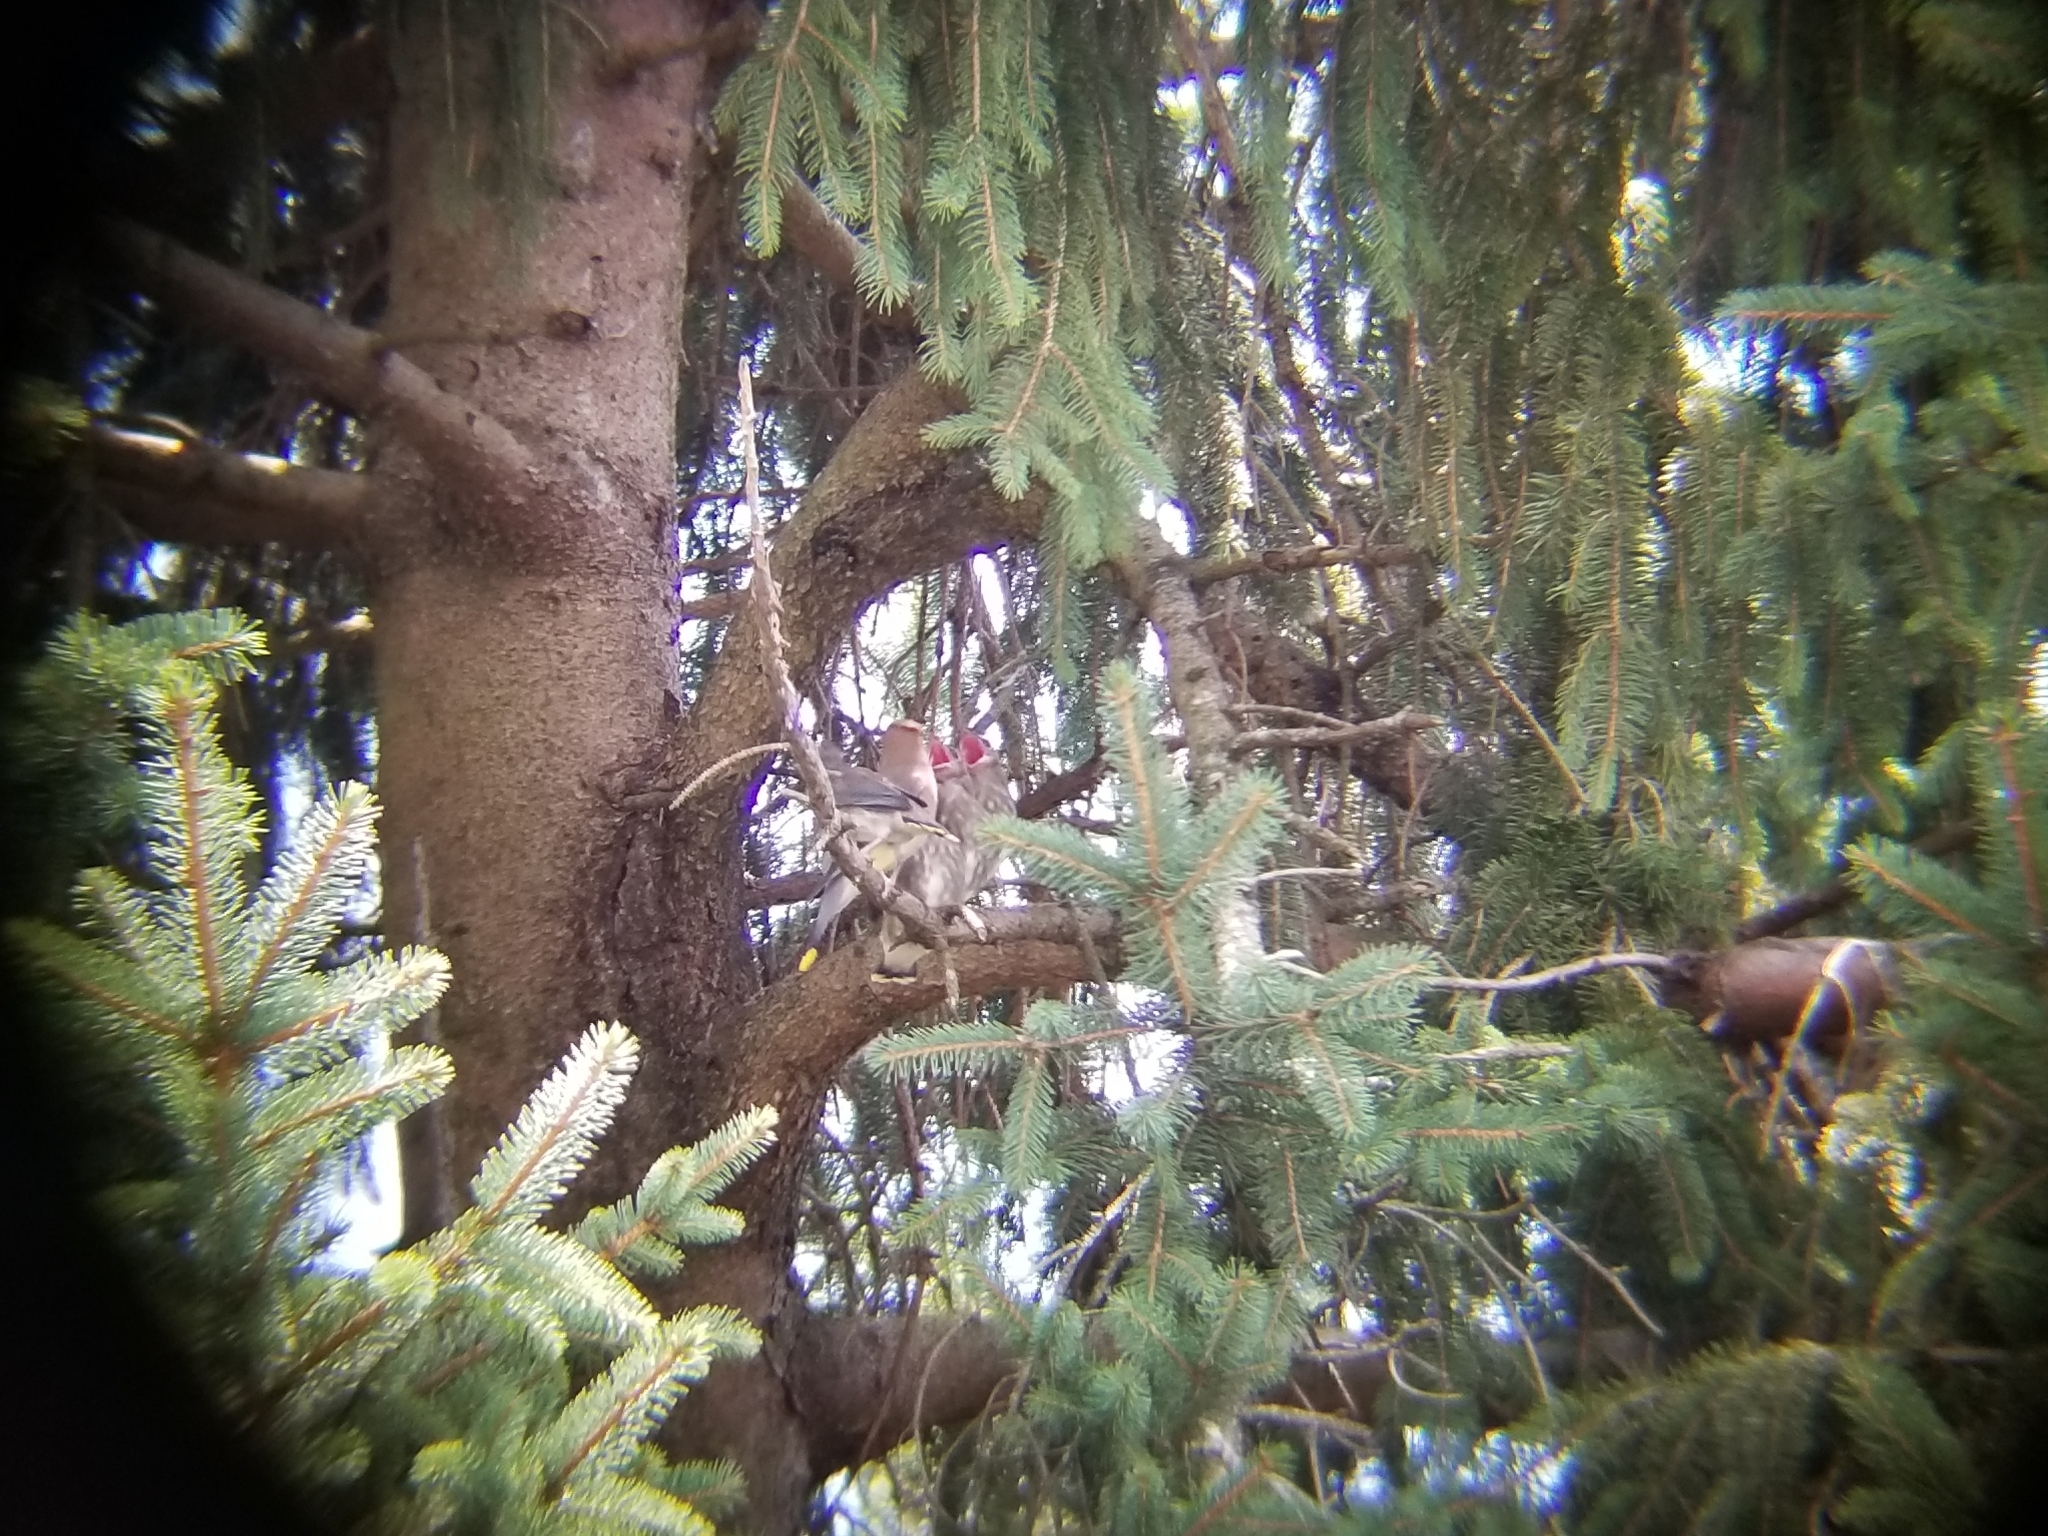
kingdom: Animalia
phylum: Chordata
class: Aves
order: Passeriformes
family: Bombycillidae
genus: Bombycilla
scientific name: Bombycilla cedrorum
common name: Cedar waxwing
